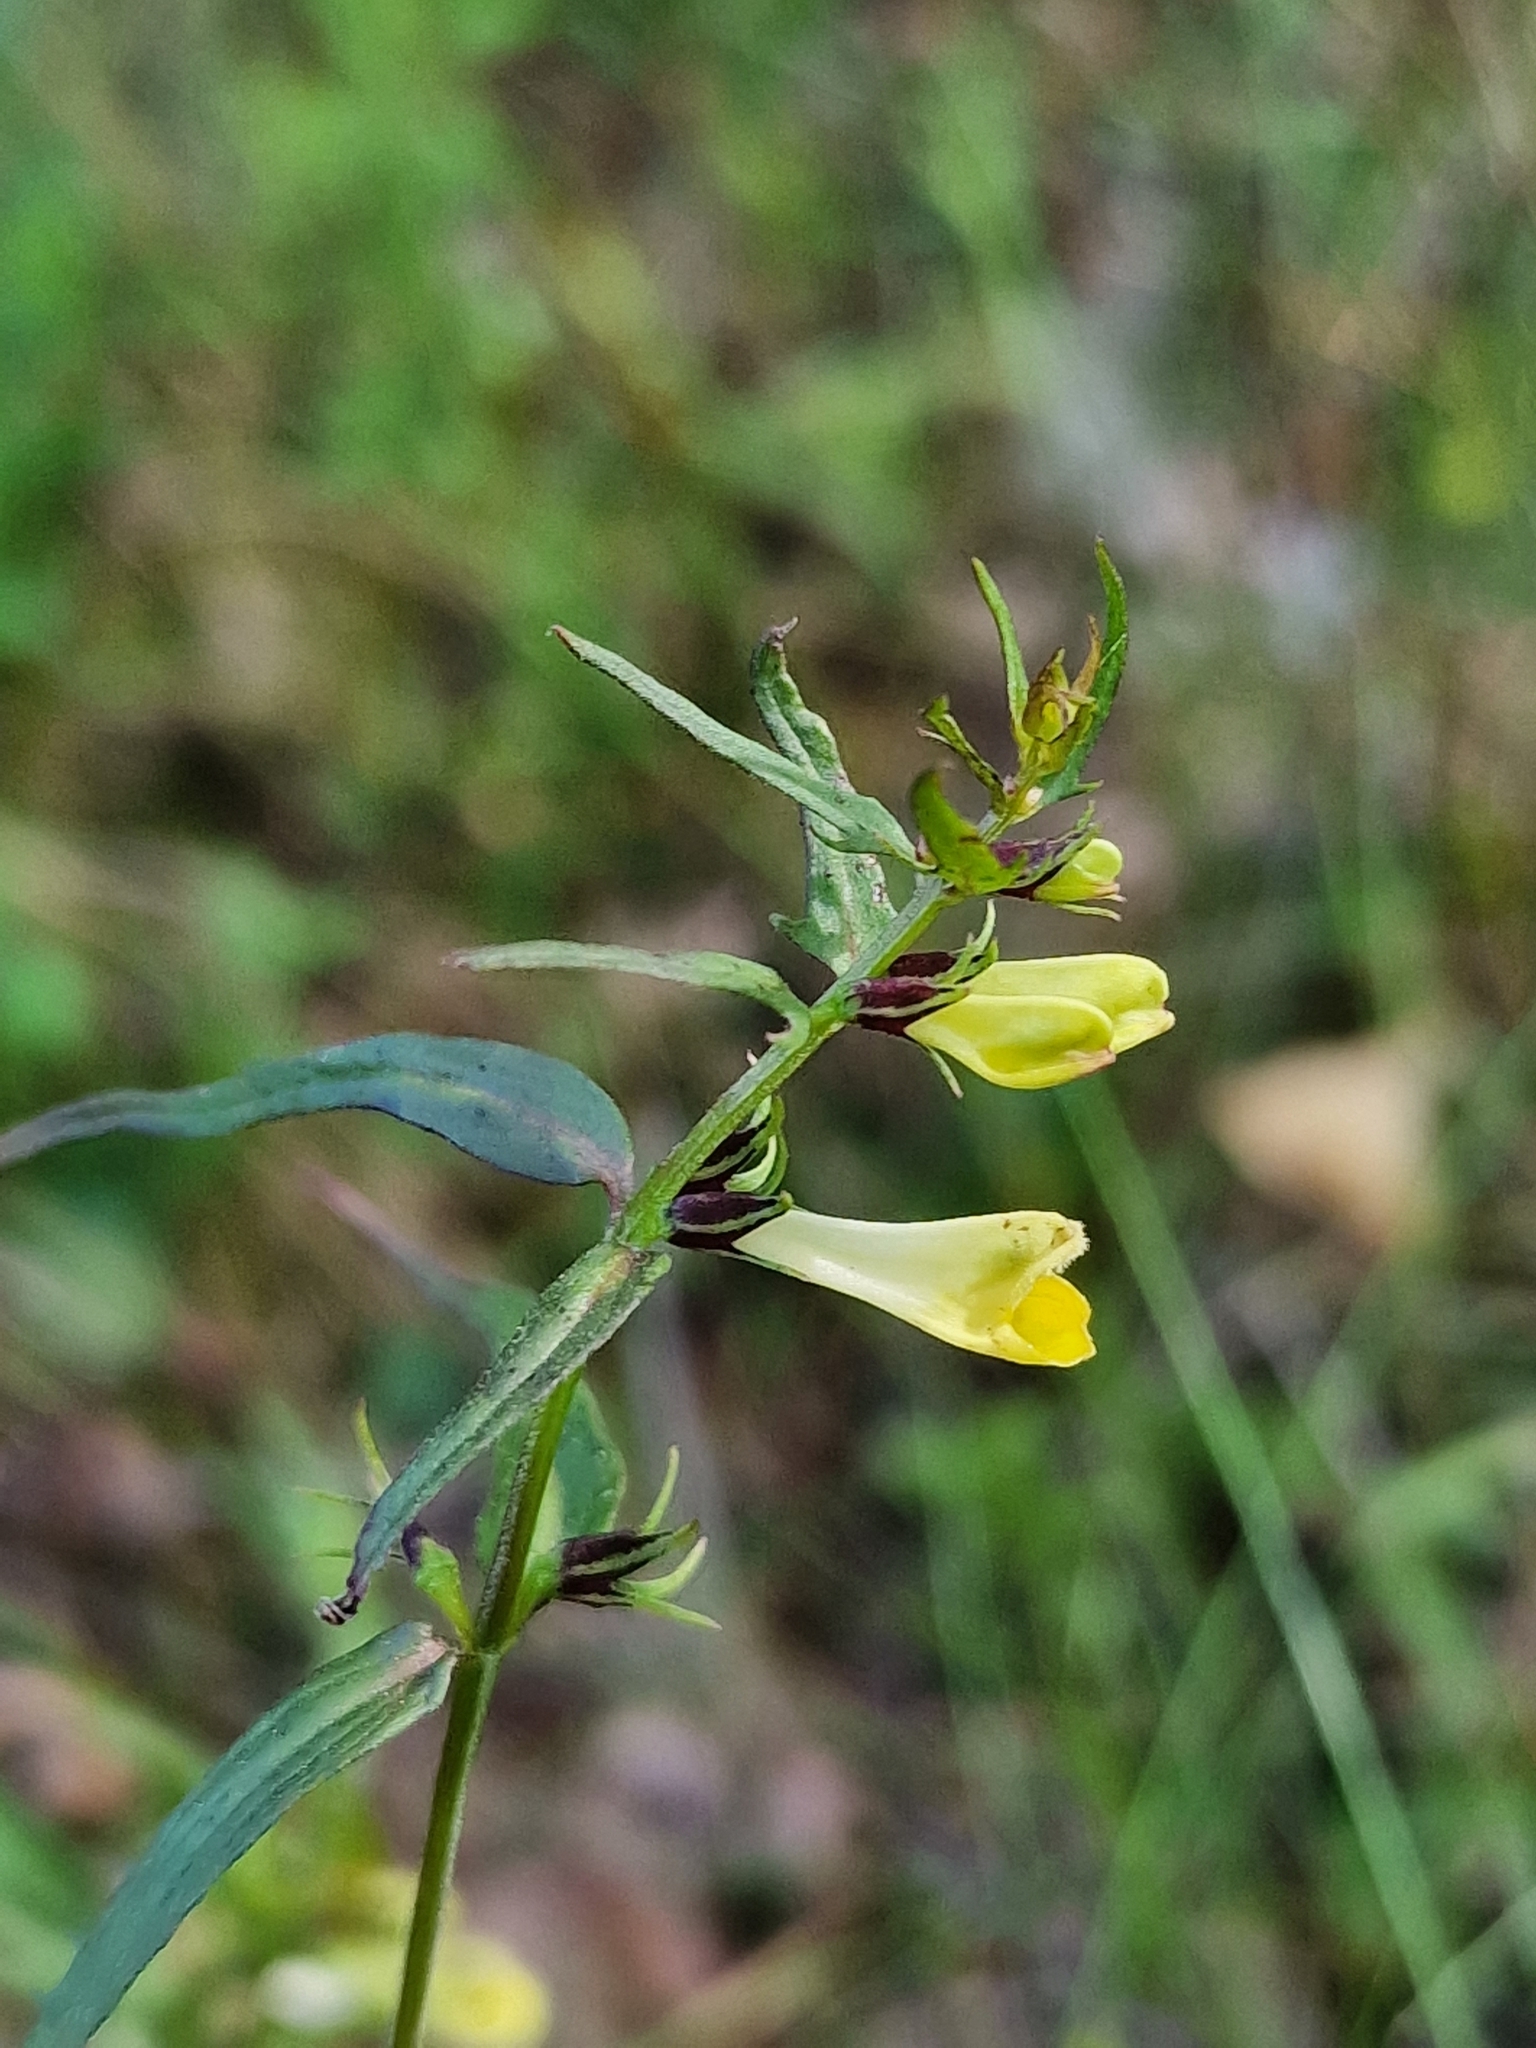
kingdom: Plantae
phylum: Tracheophyta
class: Magnoliopsida
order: Lamiales
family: Orobanchaceae
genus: Melampyrum
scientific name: Melampyrum pratense
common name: Common cow-wheat
